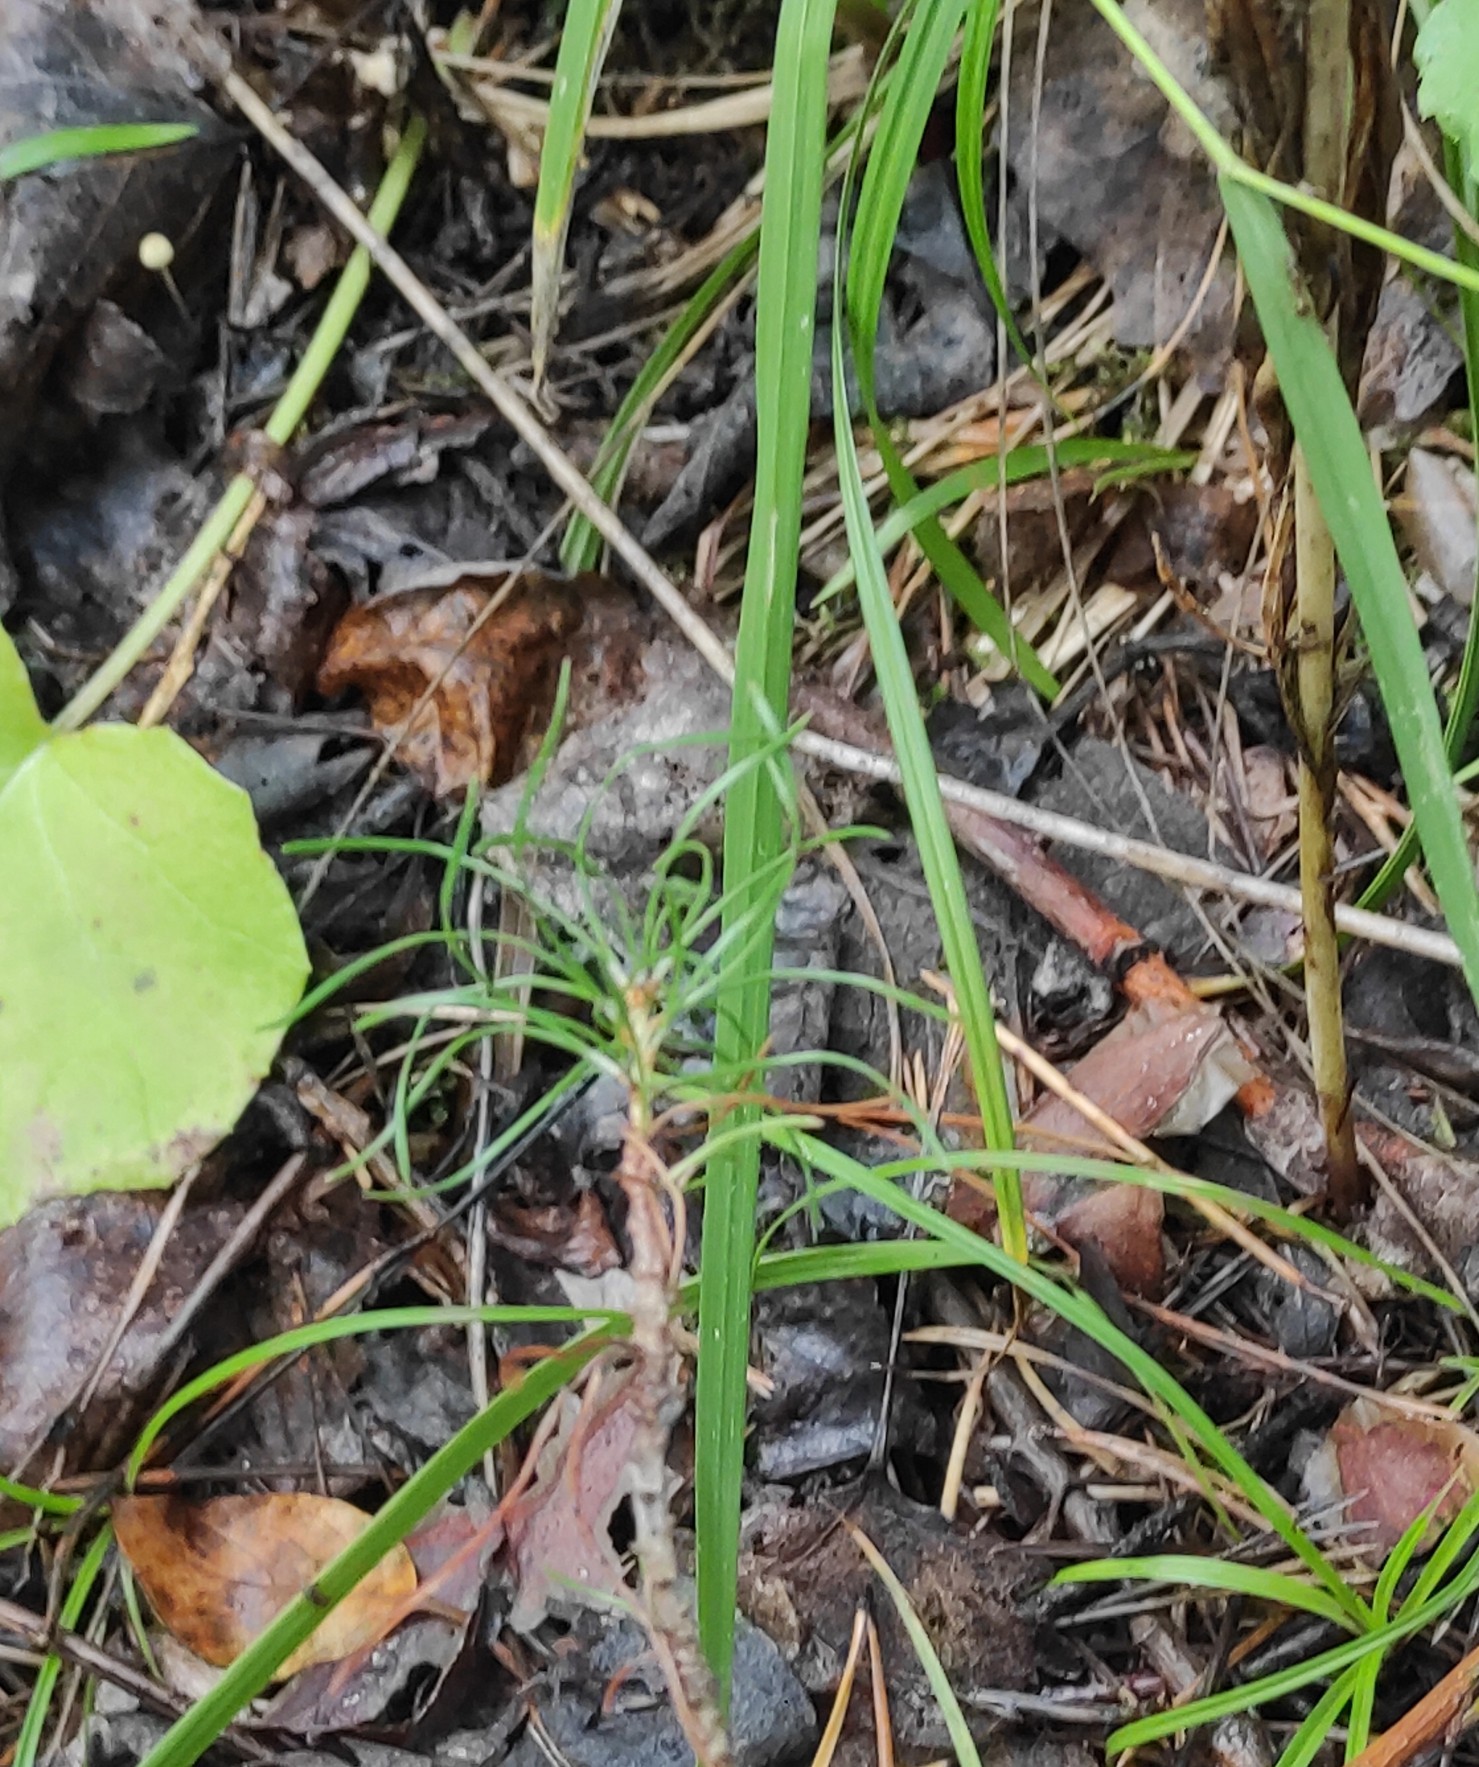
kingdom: Plantae
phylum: Tracheophyta
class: Pinopsida
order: Pinales
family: Pinaceae
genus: Pinus
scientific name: Pinus sylvestris
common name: Scots pine
